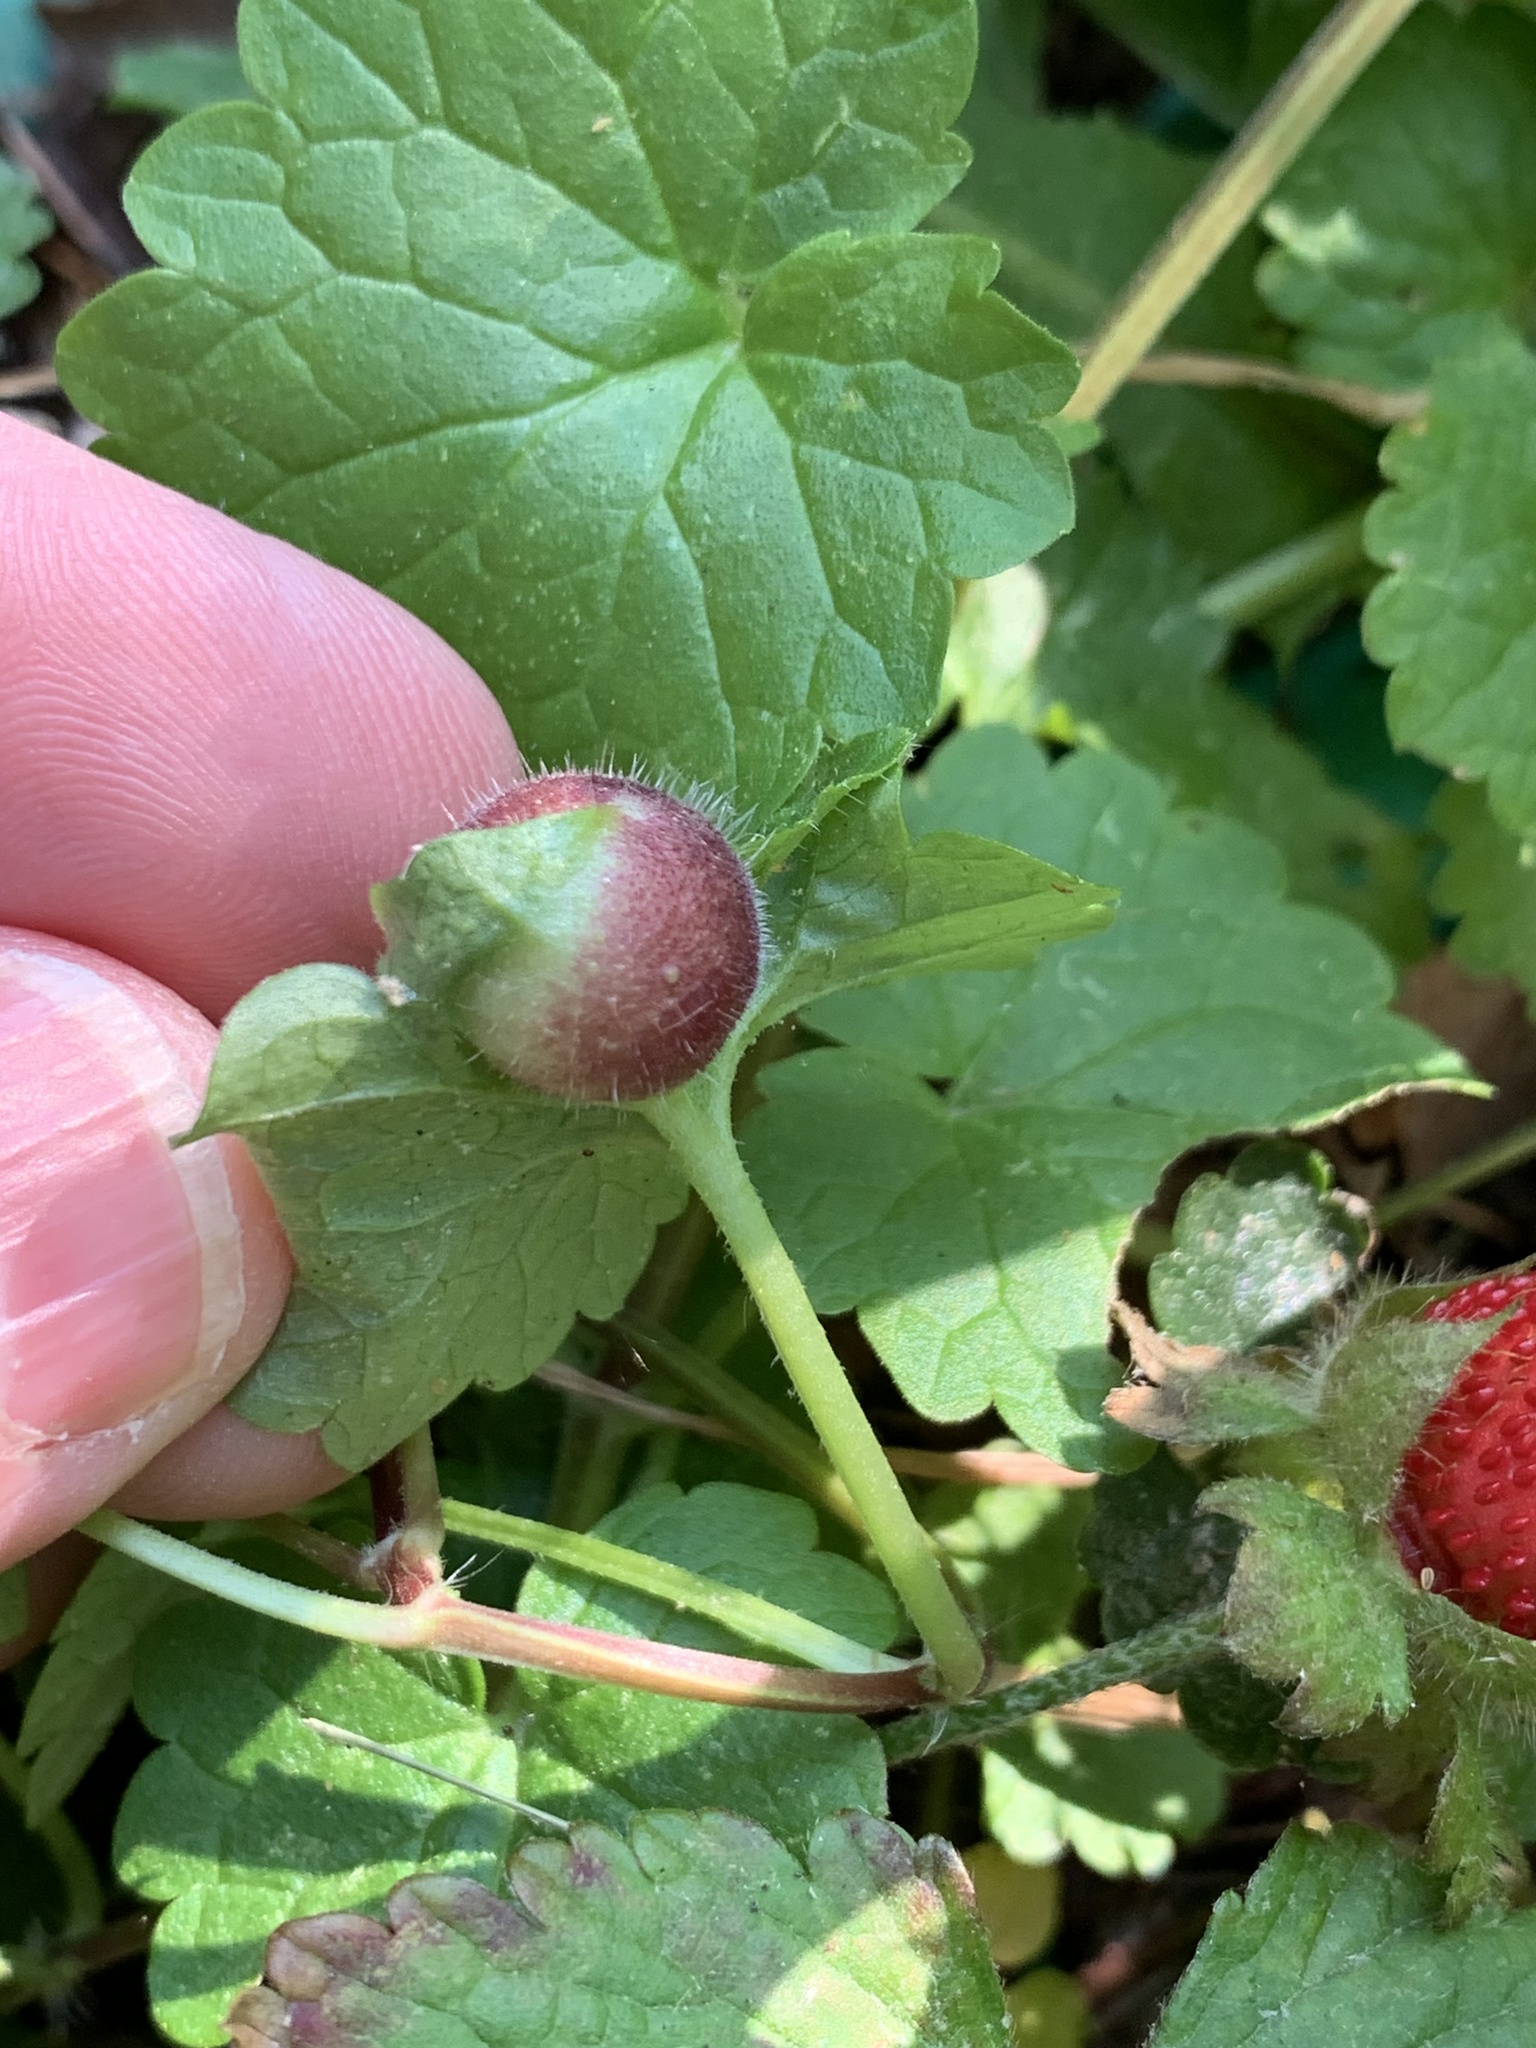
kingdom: Animalia
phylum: Arthropoda
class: Insecta
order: Hymenoptera
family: Cynipidae
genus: Liposthenes
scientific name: Liposthenes glechomae
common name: Gall wasp
